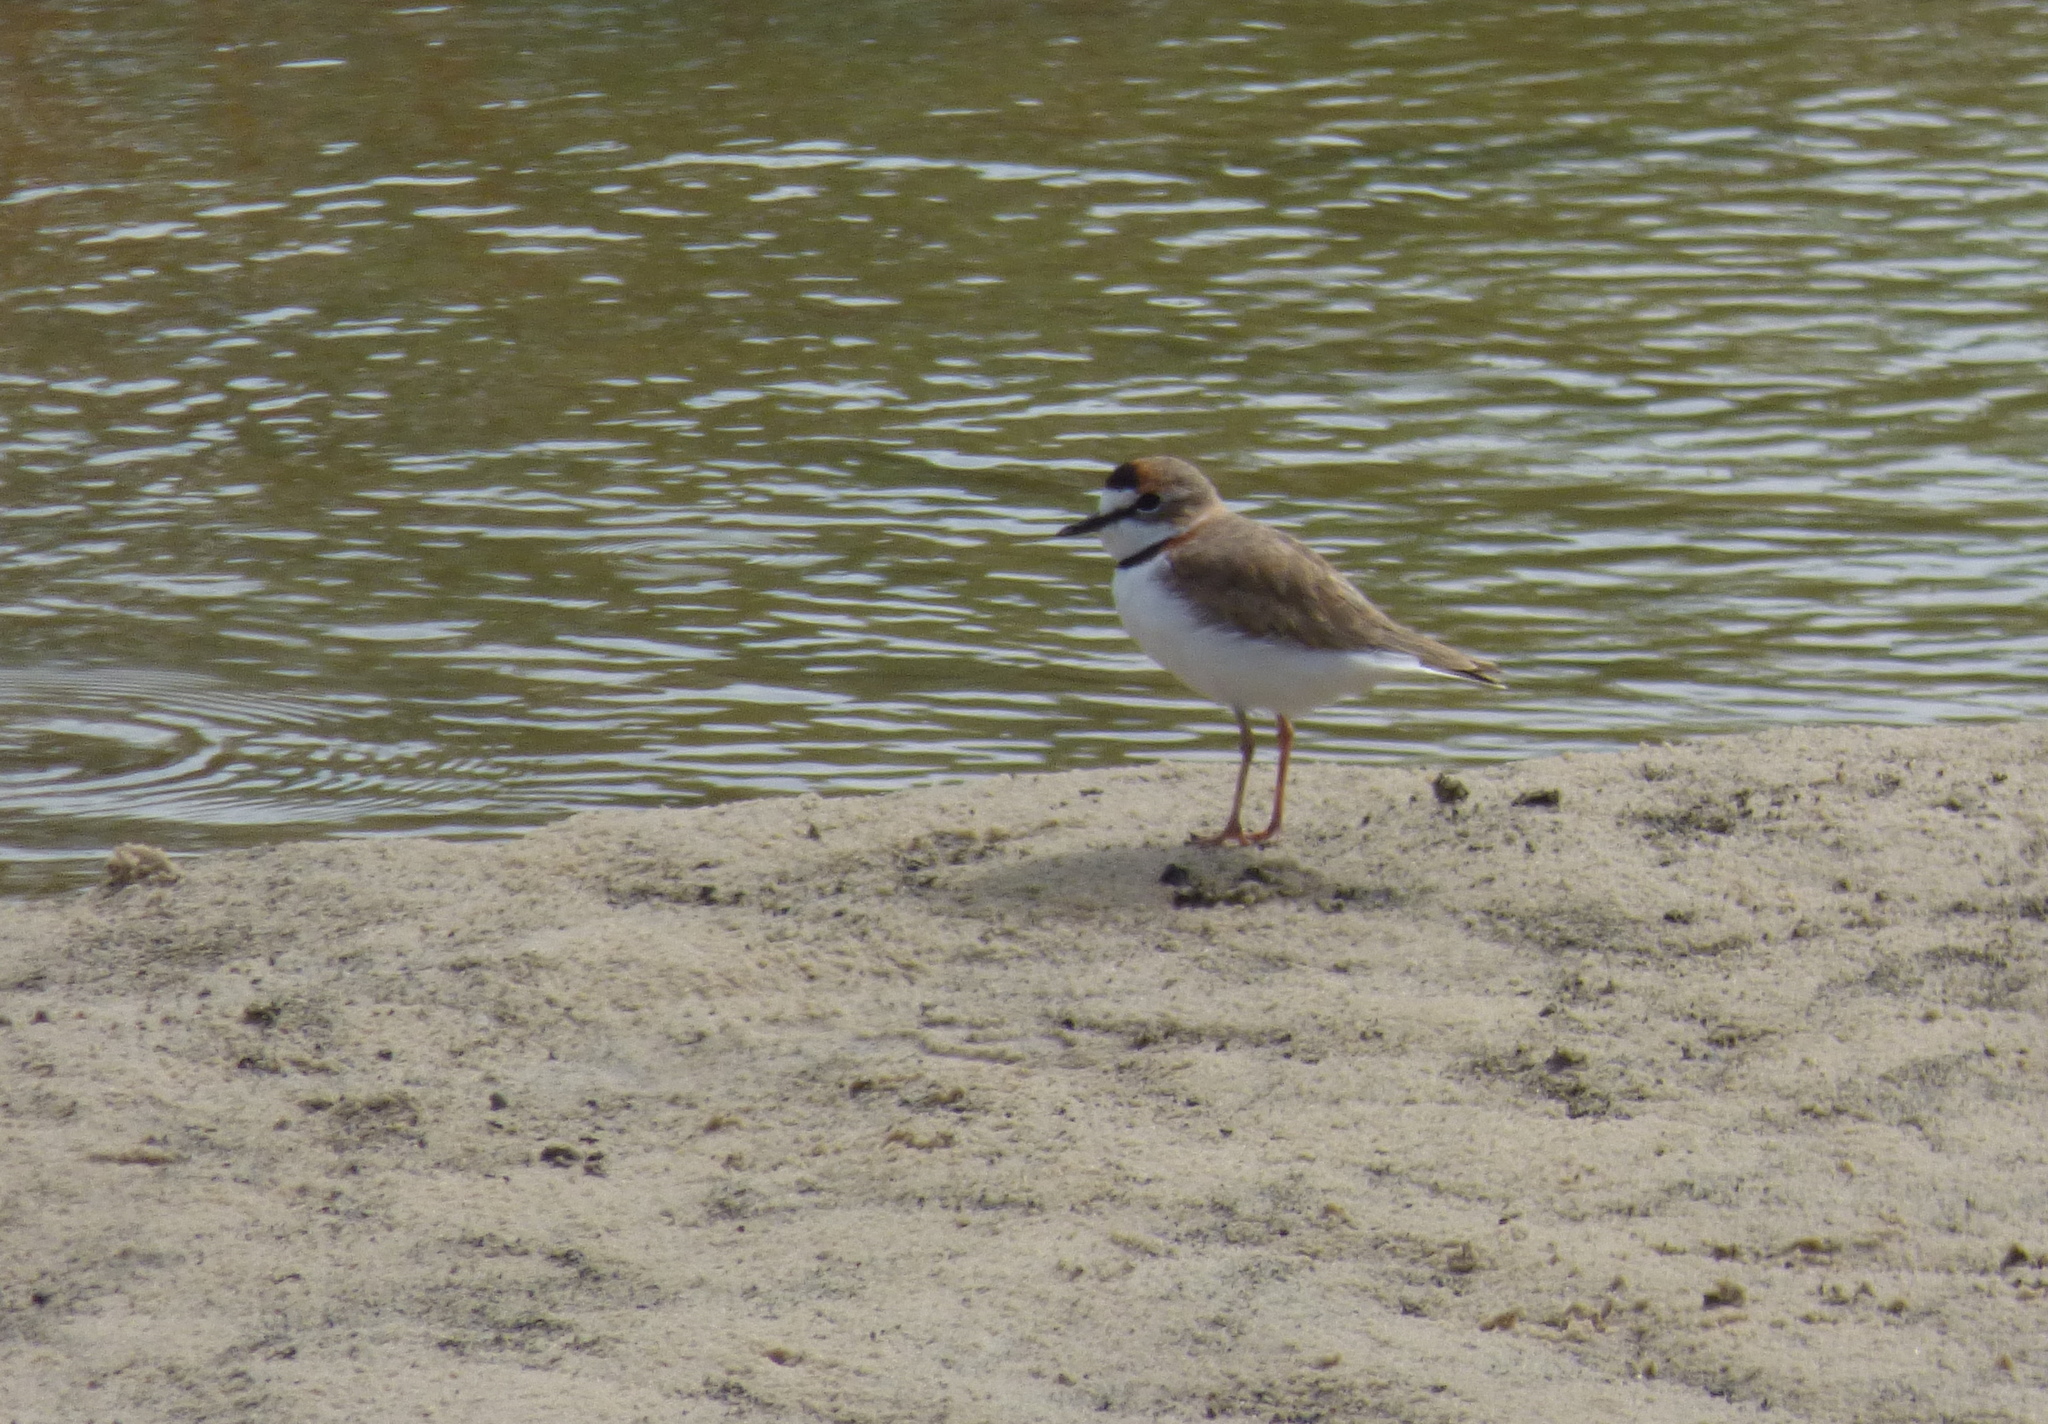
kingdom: Animalia
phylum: Chordata
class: Aves
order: Charadriiformes
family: Charadriidae
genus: Anarhynchus
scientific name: Anarhynchus
